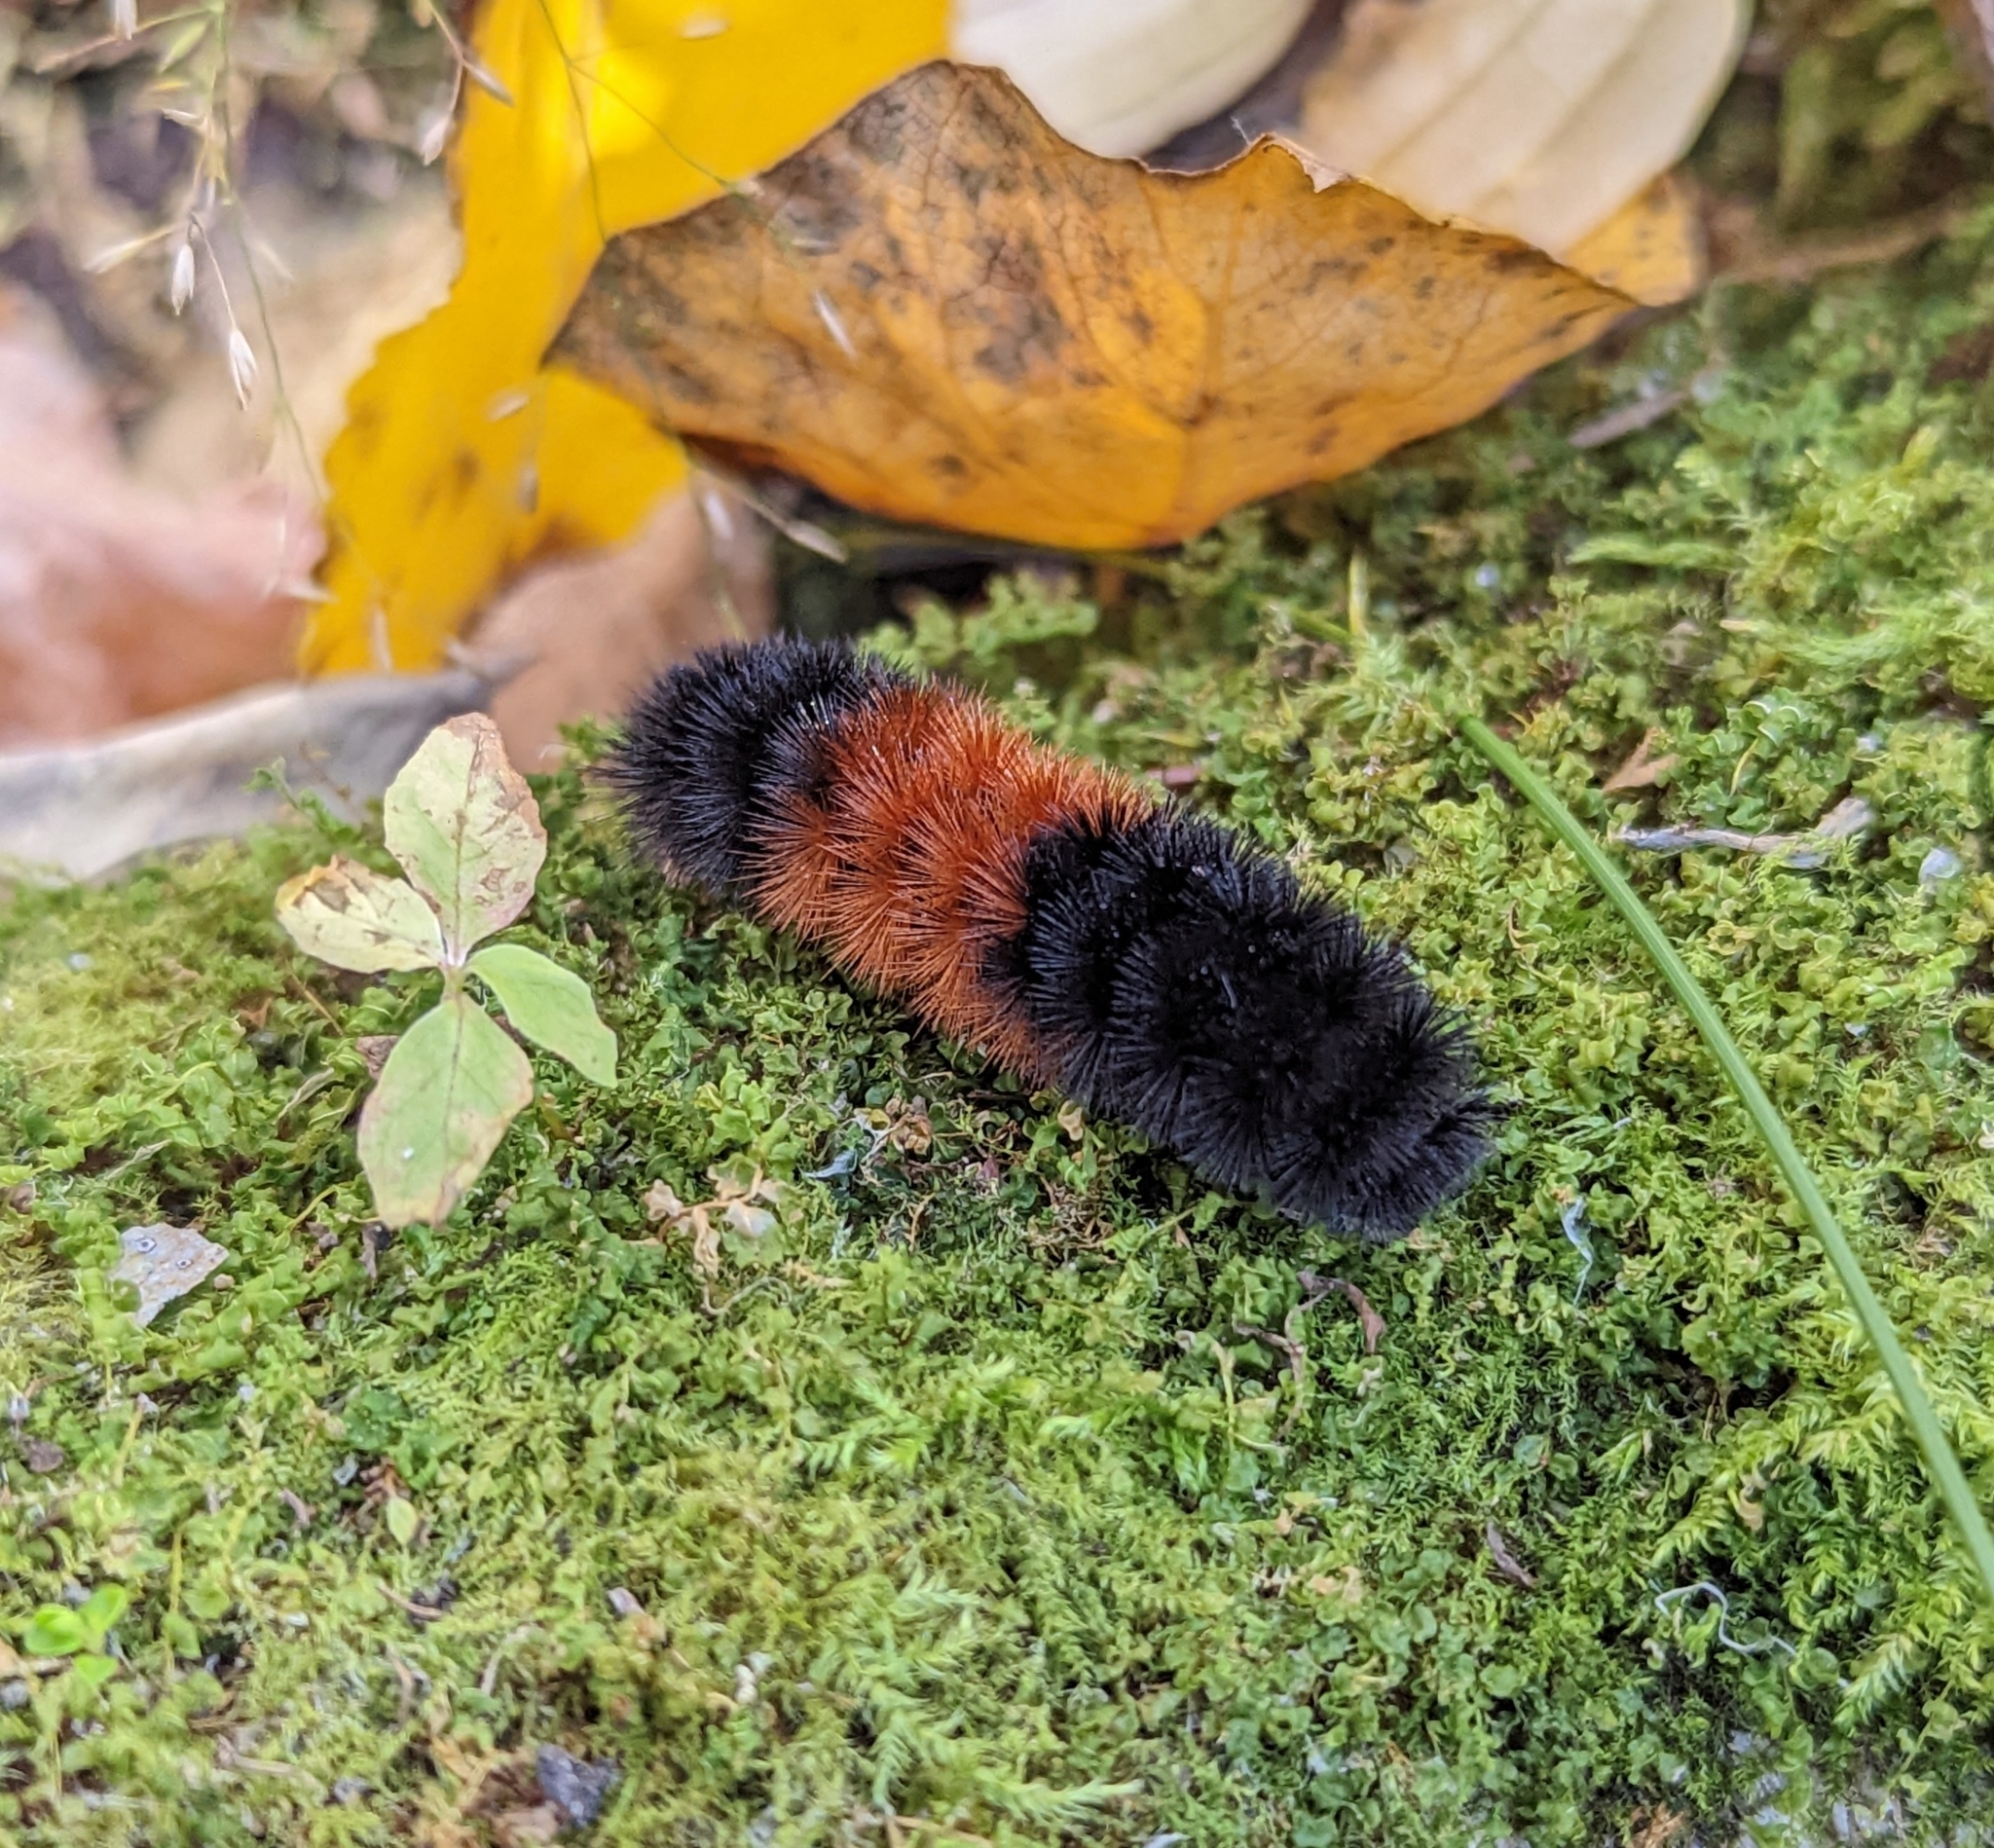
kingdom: Animalia
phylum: Arthropoda
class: Insecta
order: Lepidoptera
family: Erebidae
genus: Pyrrharctia
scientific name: Pyrrharctia isabella
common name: Isabella tiger moth
